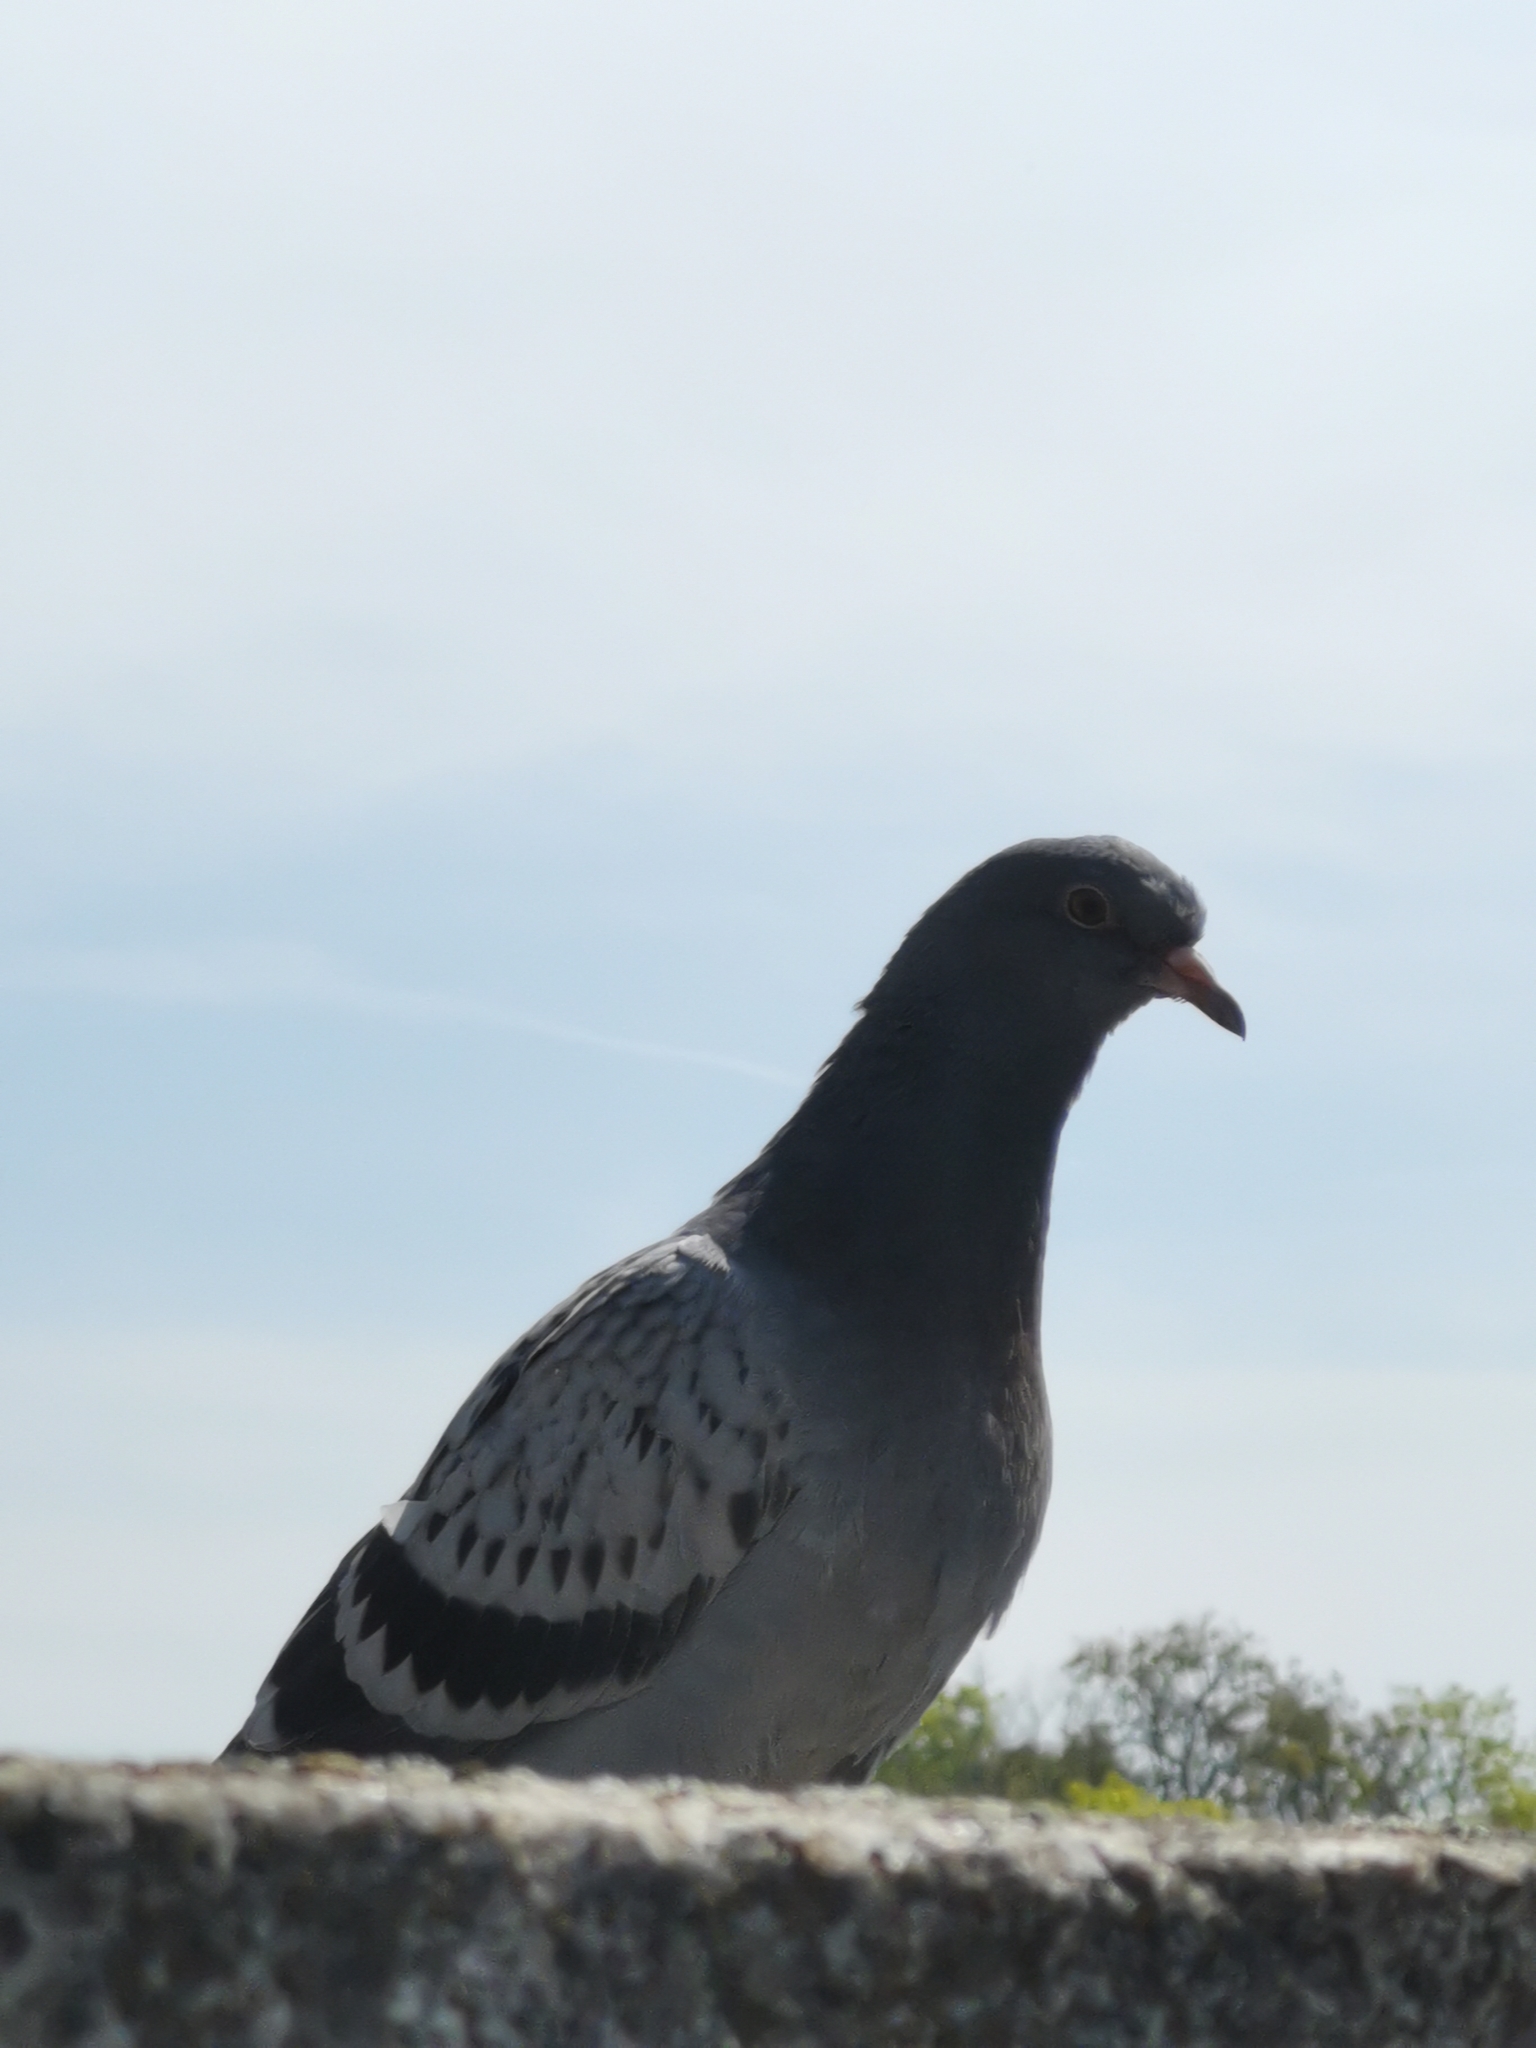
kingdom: Animalia
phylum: Chordata
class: Aves
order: Columbiformes
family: Columbidae
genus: Columba
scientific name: Columba livia
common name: Rock pigeon
